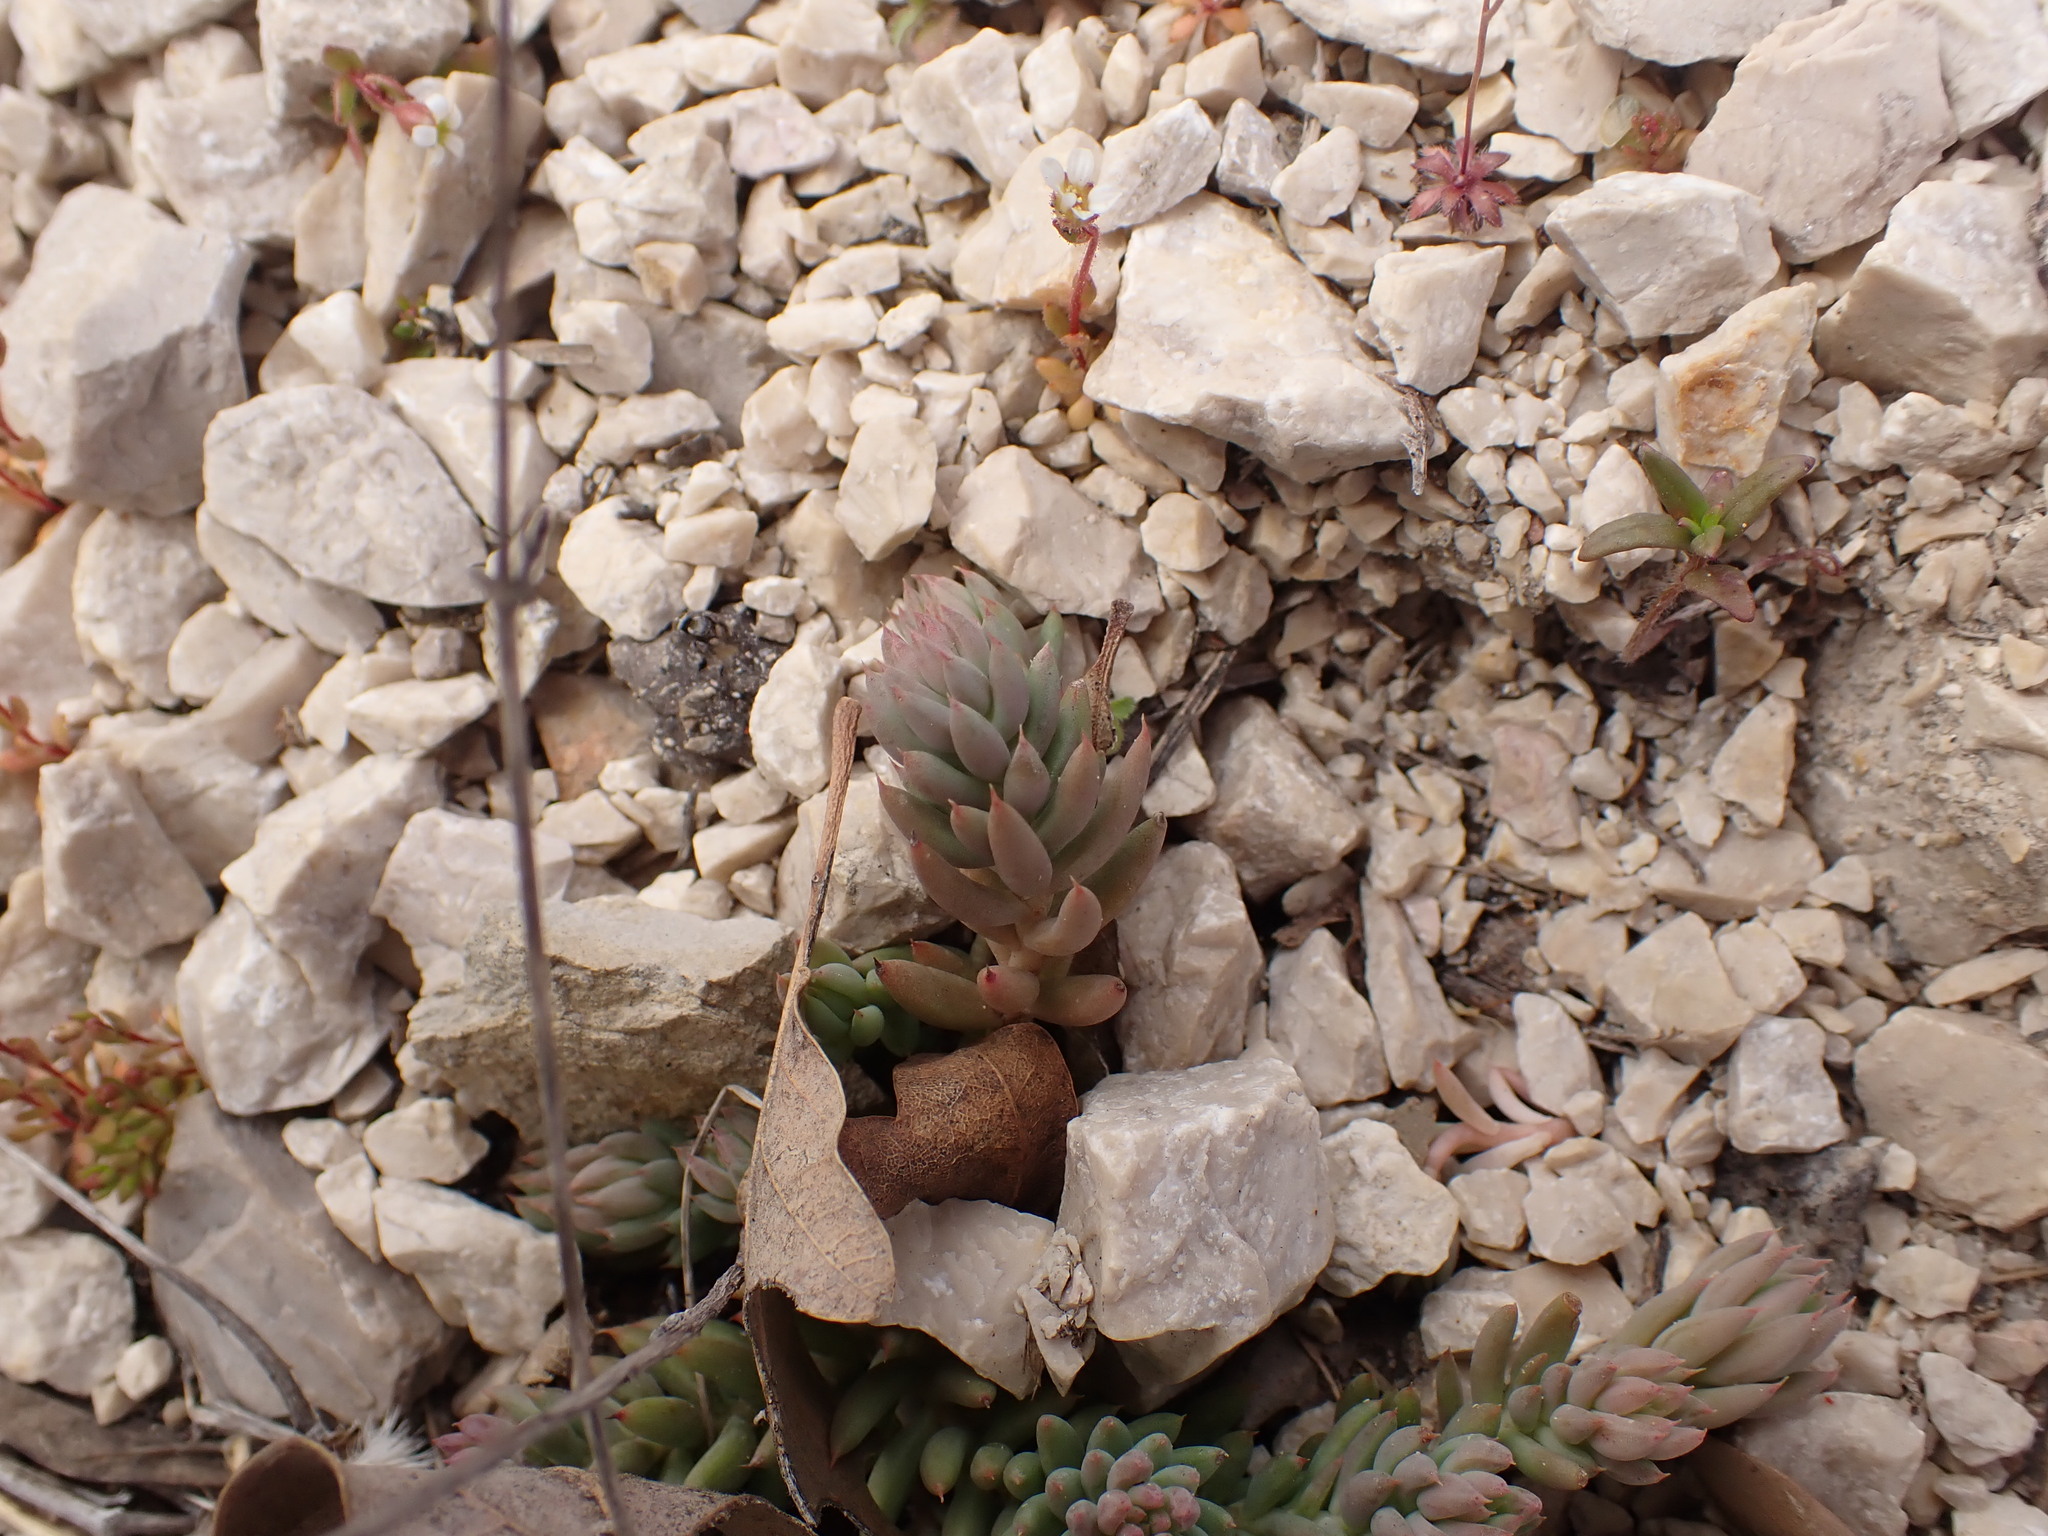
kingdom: Plantae
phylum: Tracheophyta
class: Magnoliopsida
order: Saxifragales
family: Crassulaceae
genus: Petrosedum
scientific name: Petrosedum sediforme
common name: Pale stonecrop
